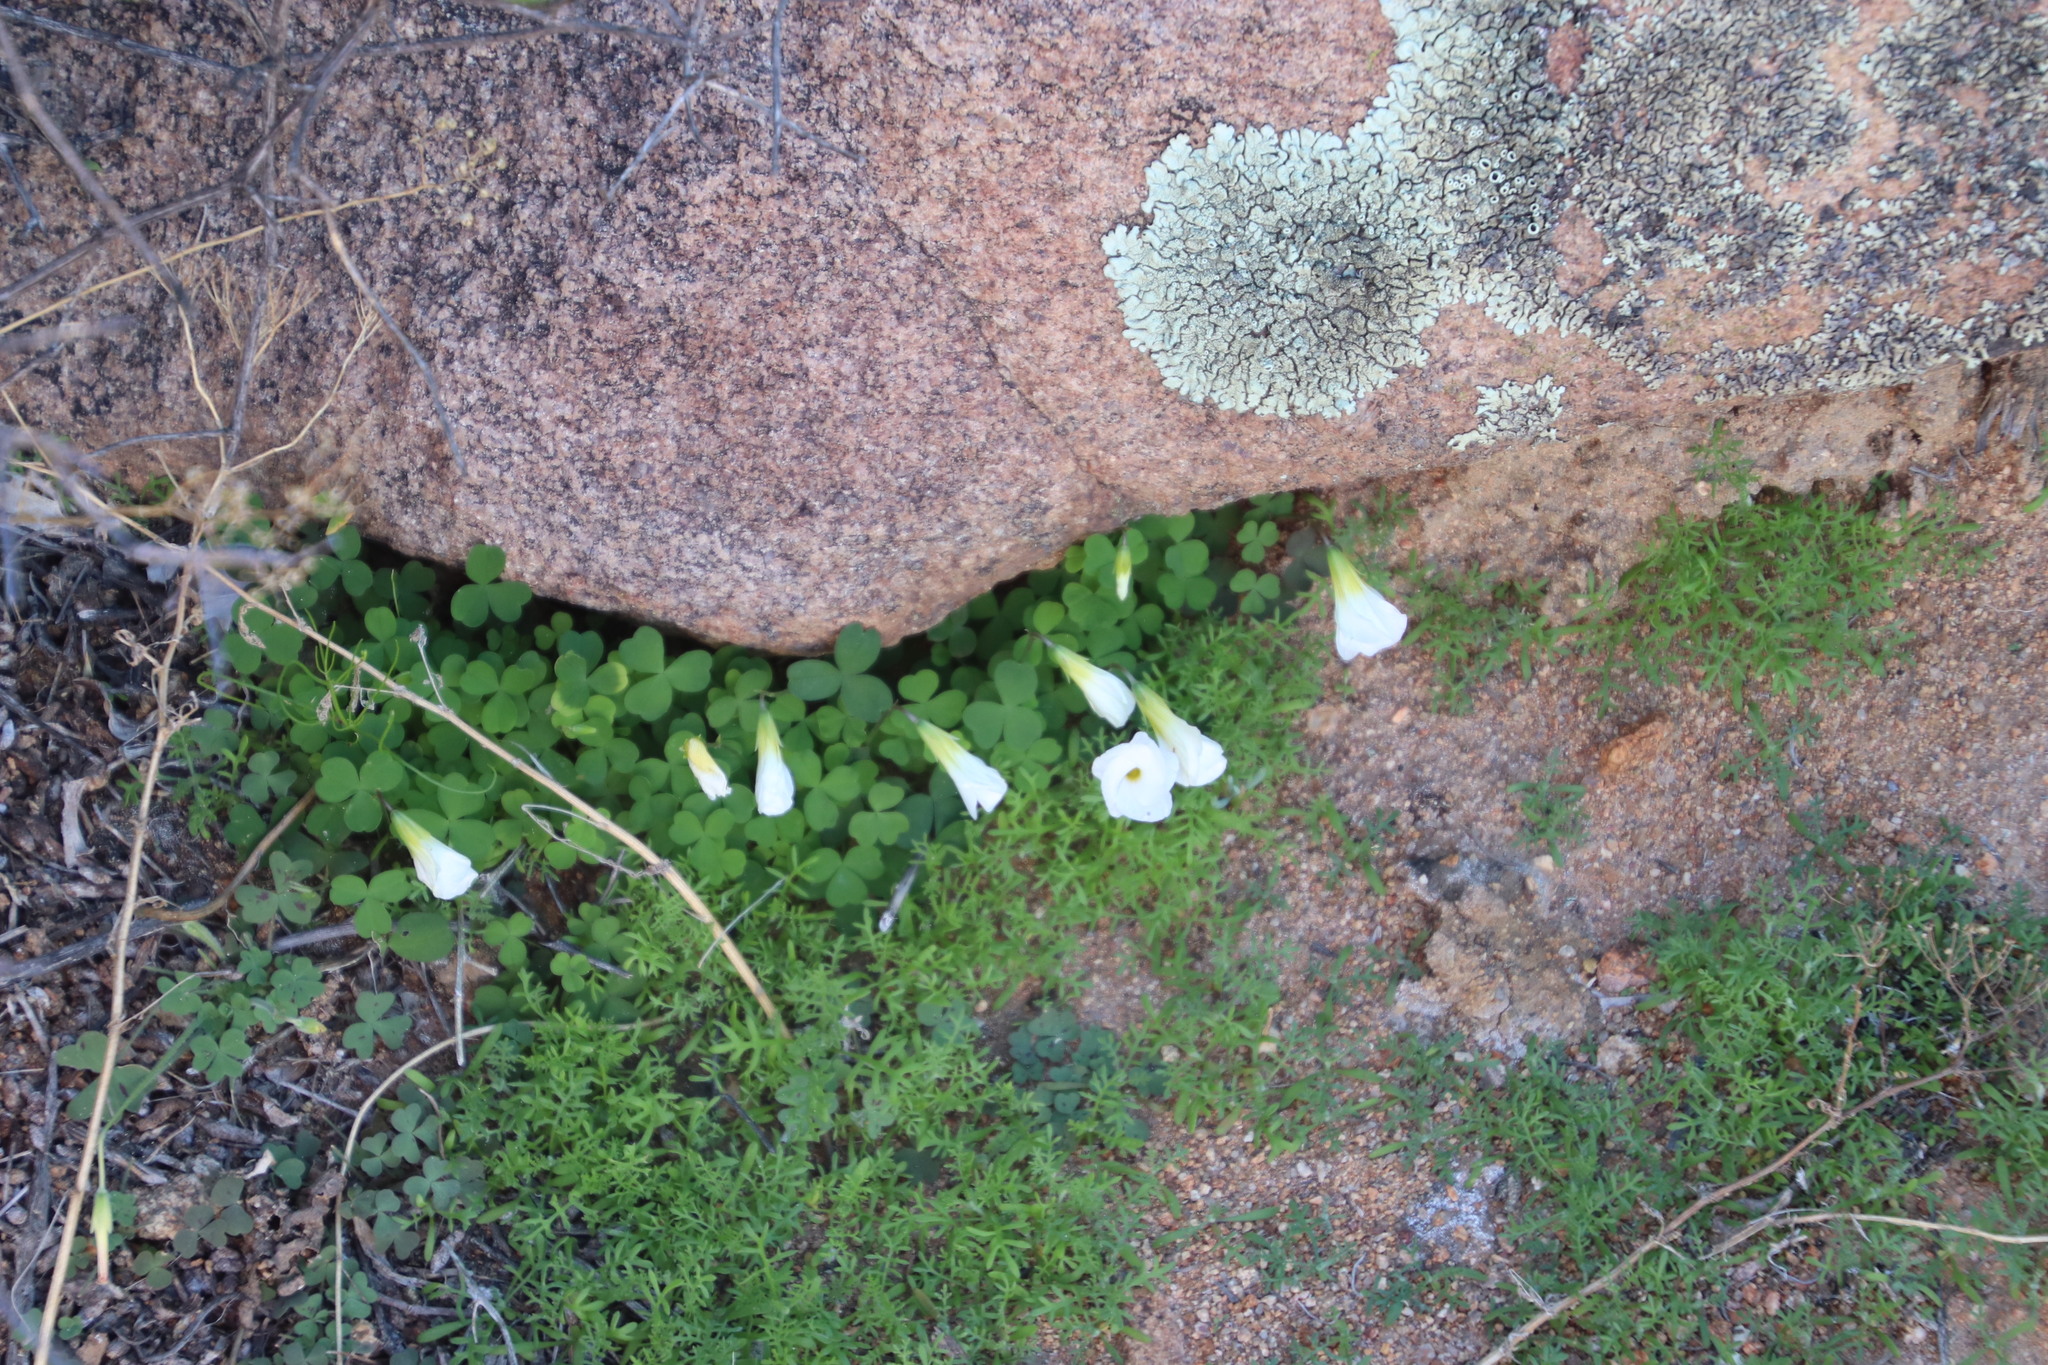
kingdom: Plantae
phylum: Tracheophyta
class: Magnoliopsida
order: Oxalidales
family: Oxalidaceae
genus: Oxalis
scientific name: Oxalis obtusa
